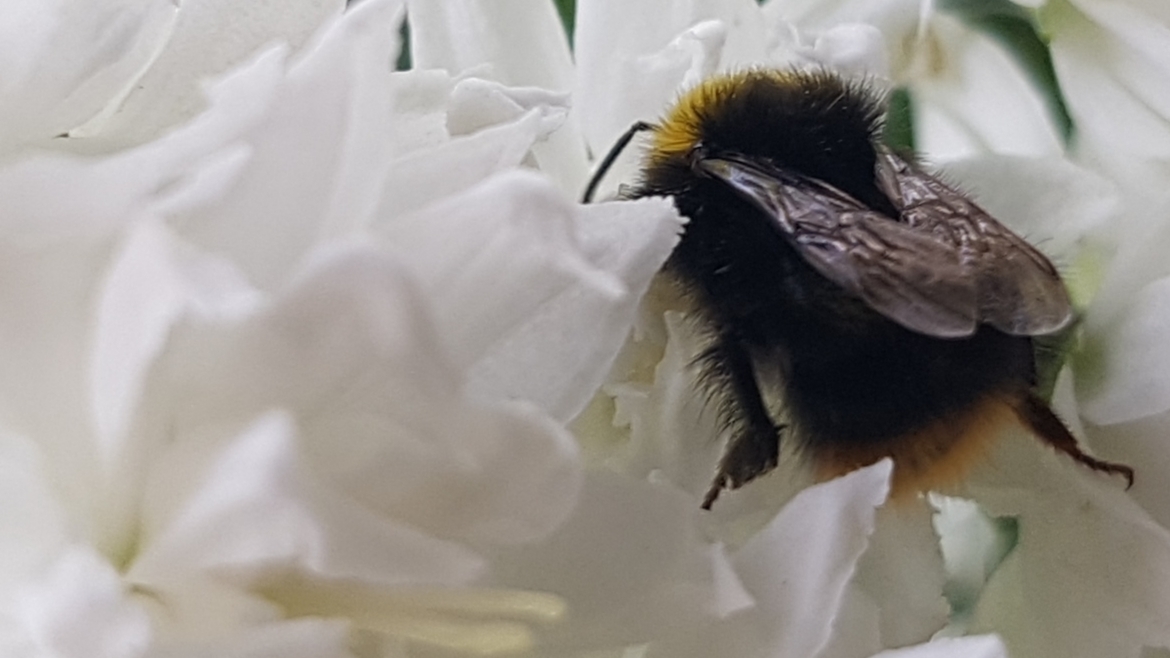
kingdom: Animalia
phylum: Arthropoda
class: Insecta
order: Hymenoptera
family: Apidae
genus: Bombus
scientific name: Bombus pratorum
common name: Early humble-bee
